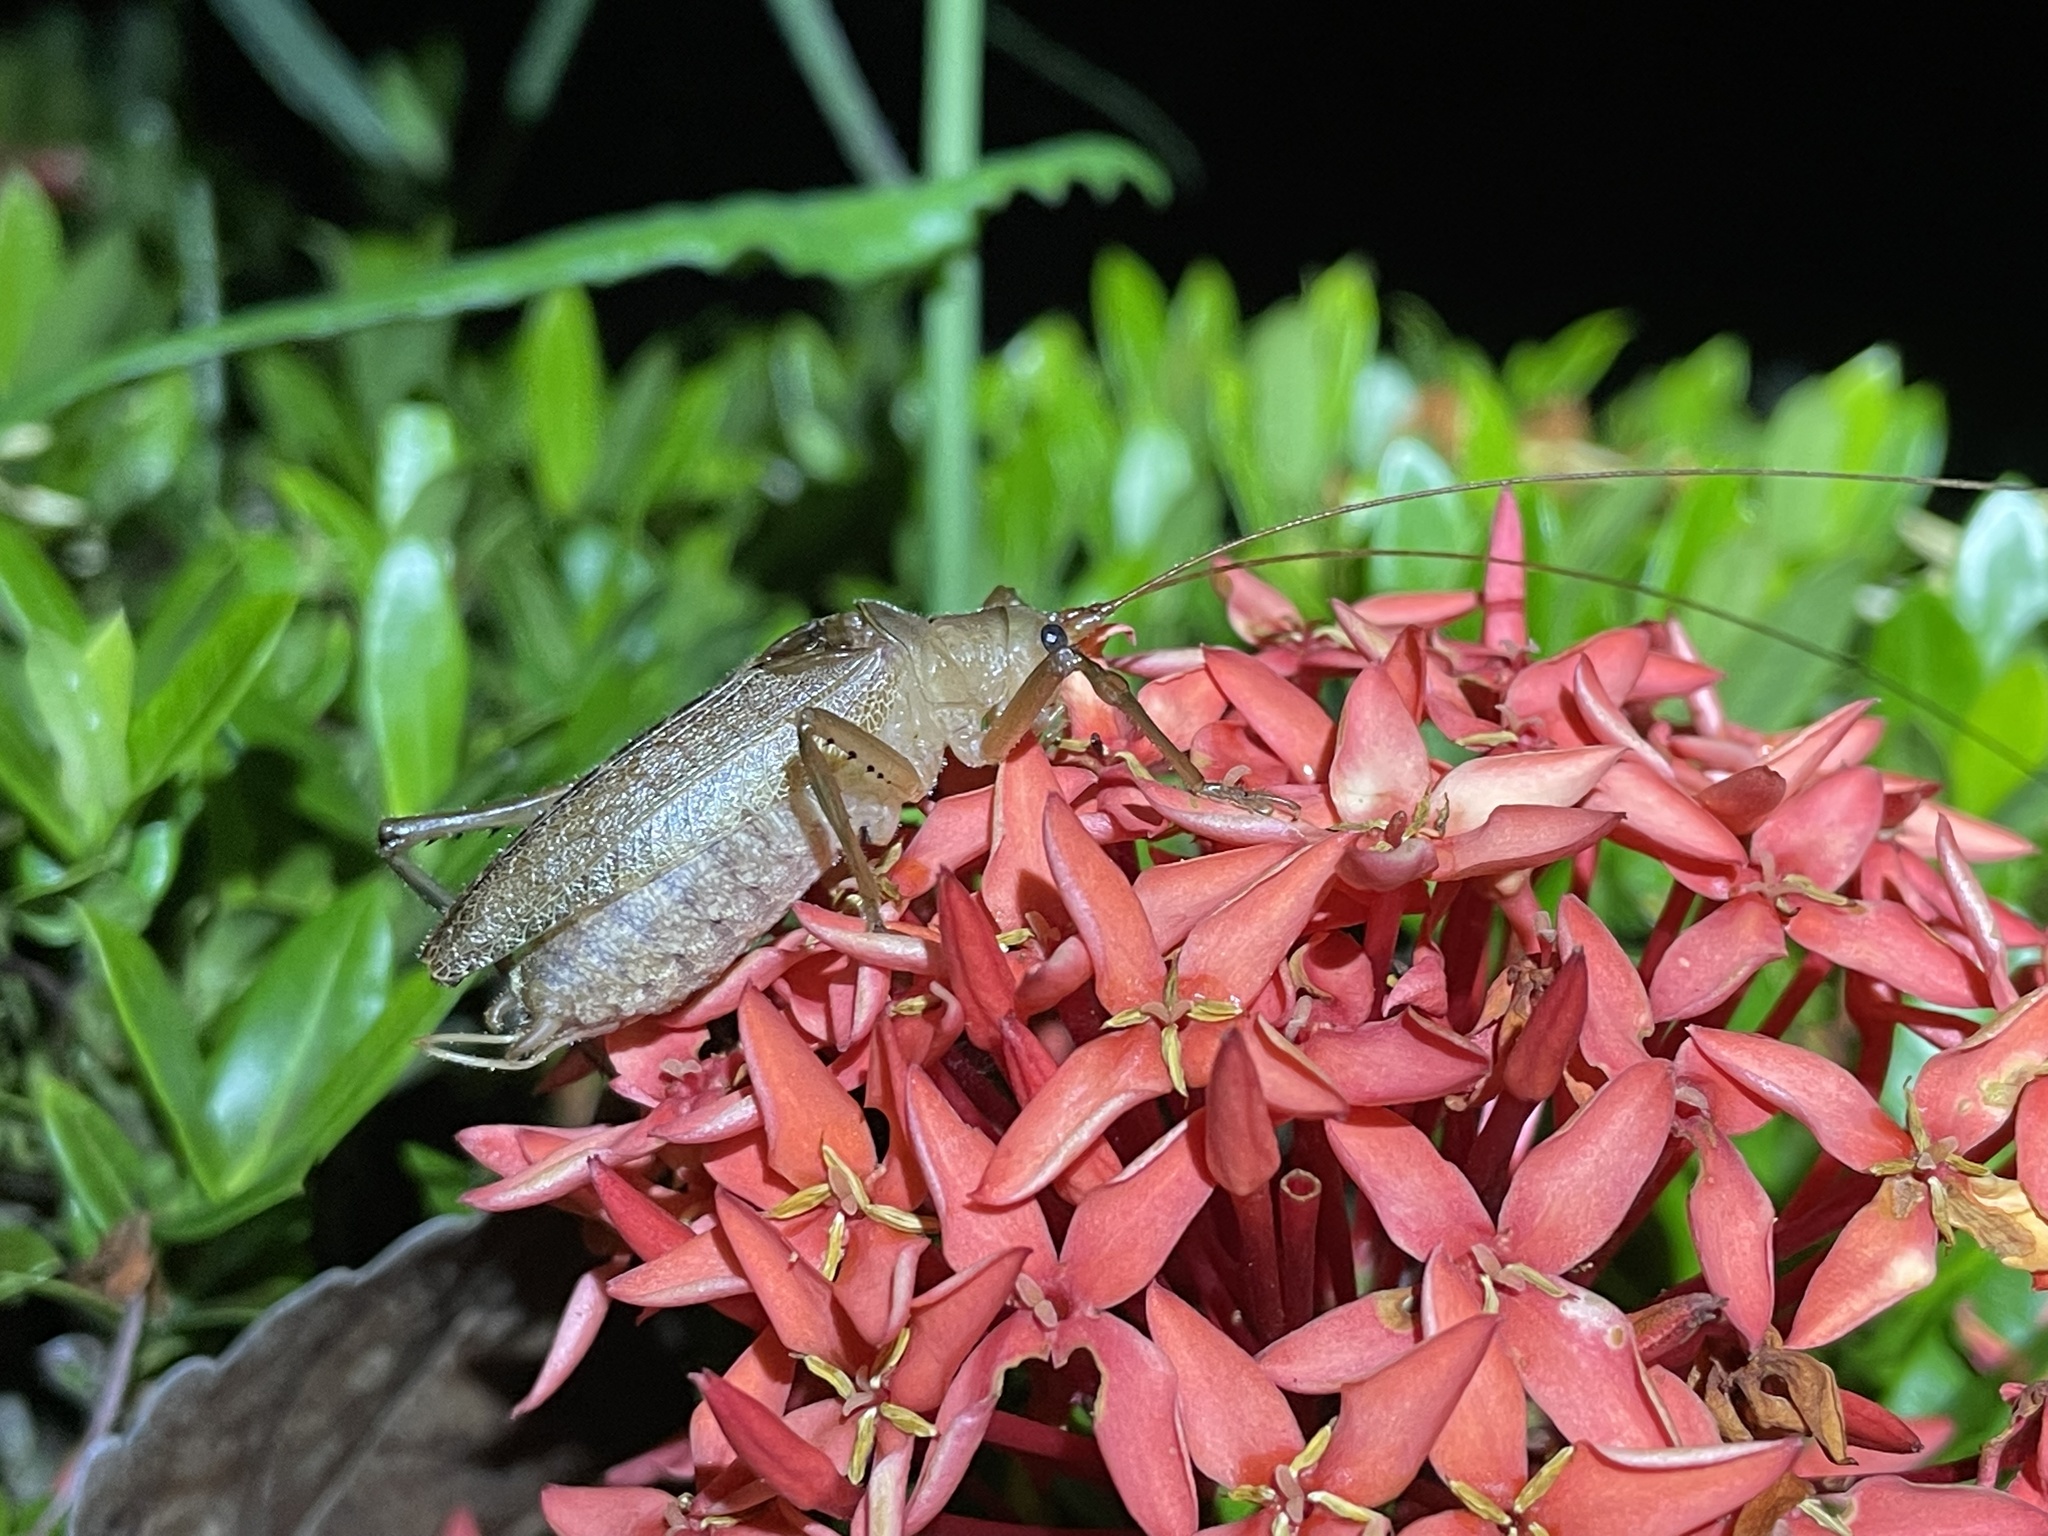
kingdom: Animalia
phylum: Arthropoda
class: Insecta
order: Orthoptera
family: Tettigoniidae
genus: Bliastonotideus
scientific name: Bliastonotideus fulvorufus
